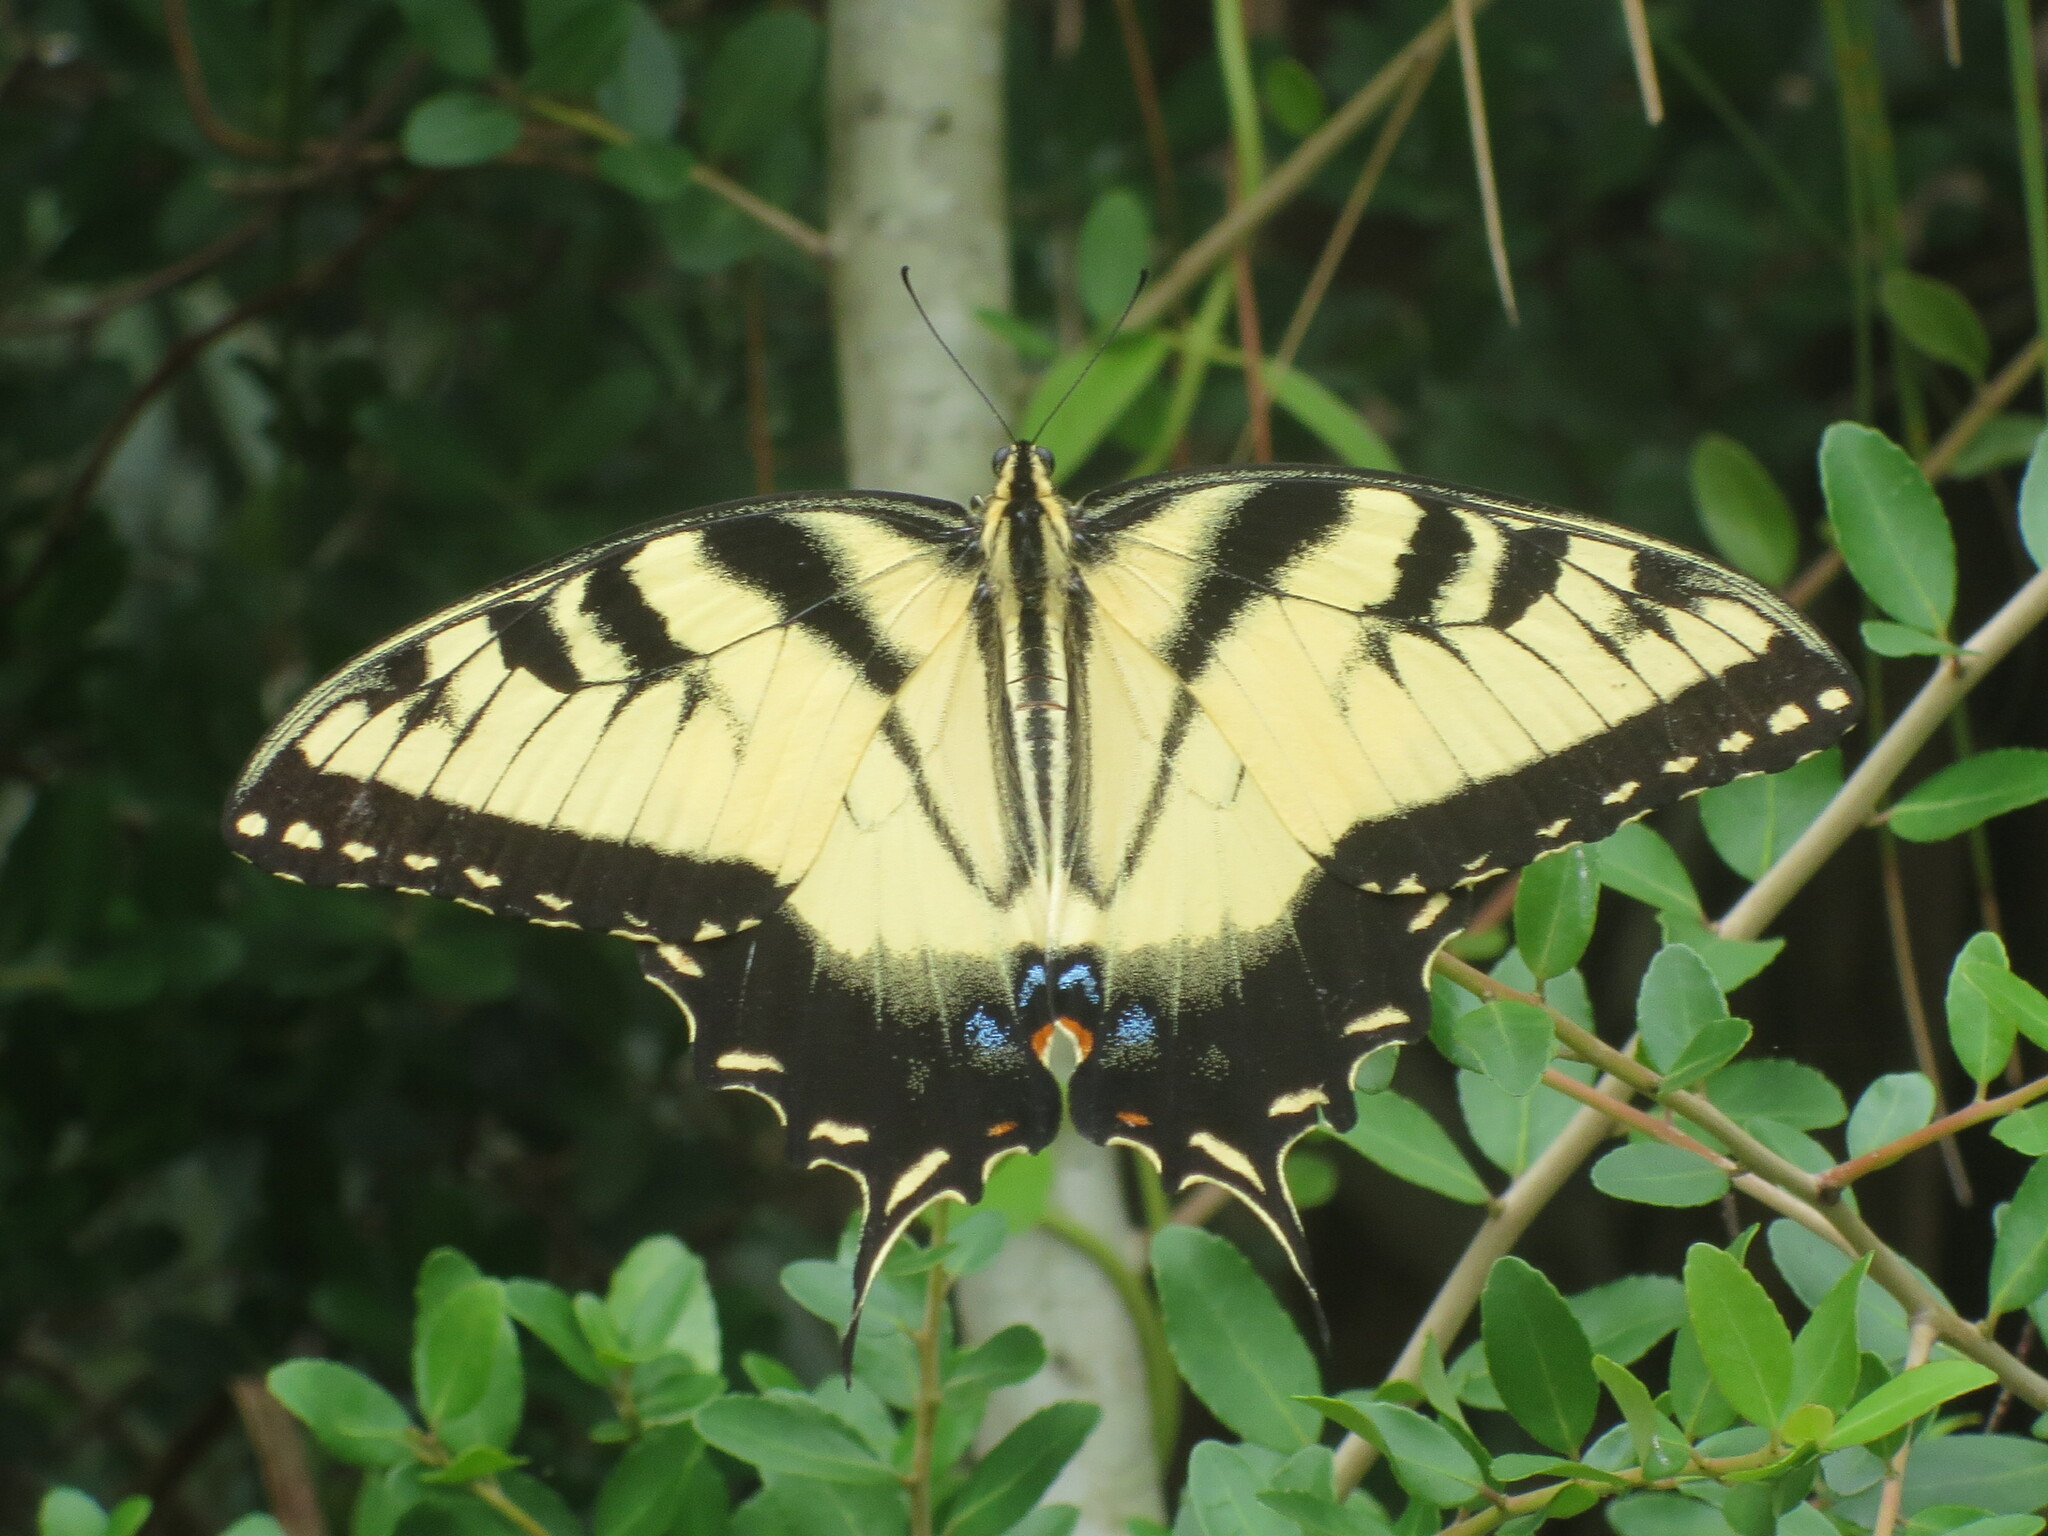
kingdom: Animalia
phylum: Arthropoda
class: Insecta
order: Lepidoptera
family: Papilionidae
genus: Papilio
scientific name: Papilio glaucus
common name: Tiger swallowtail
